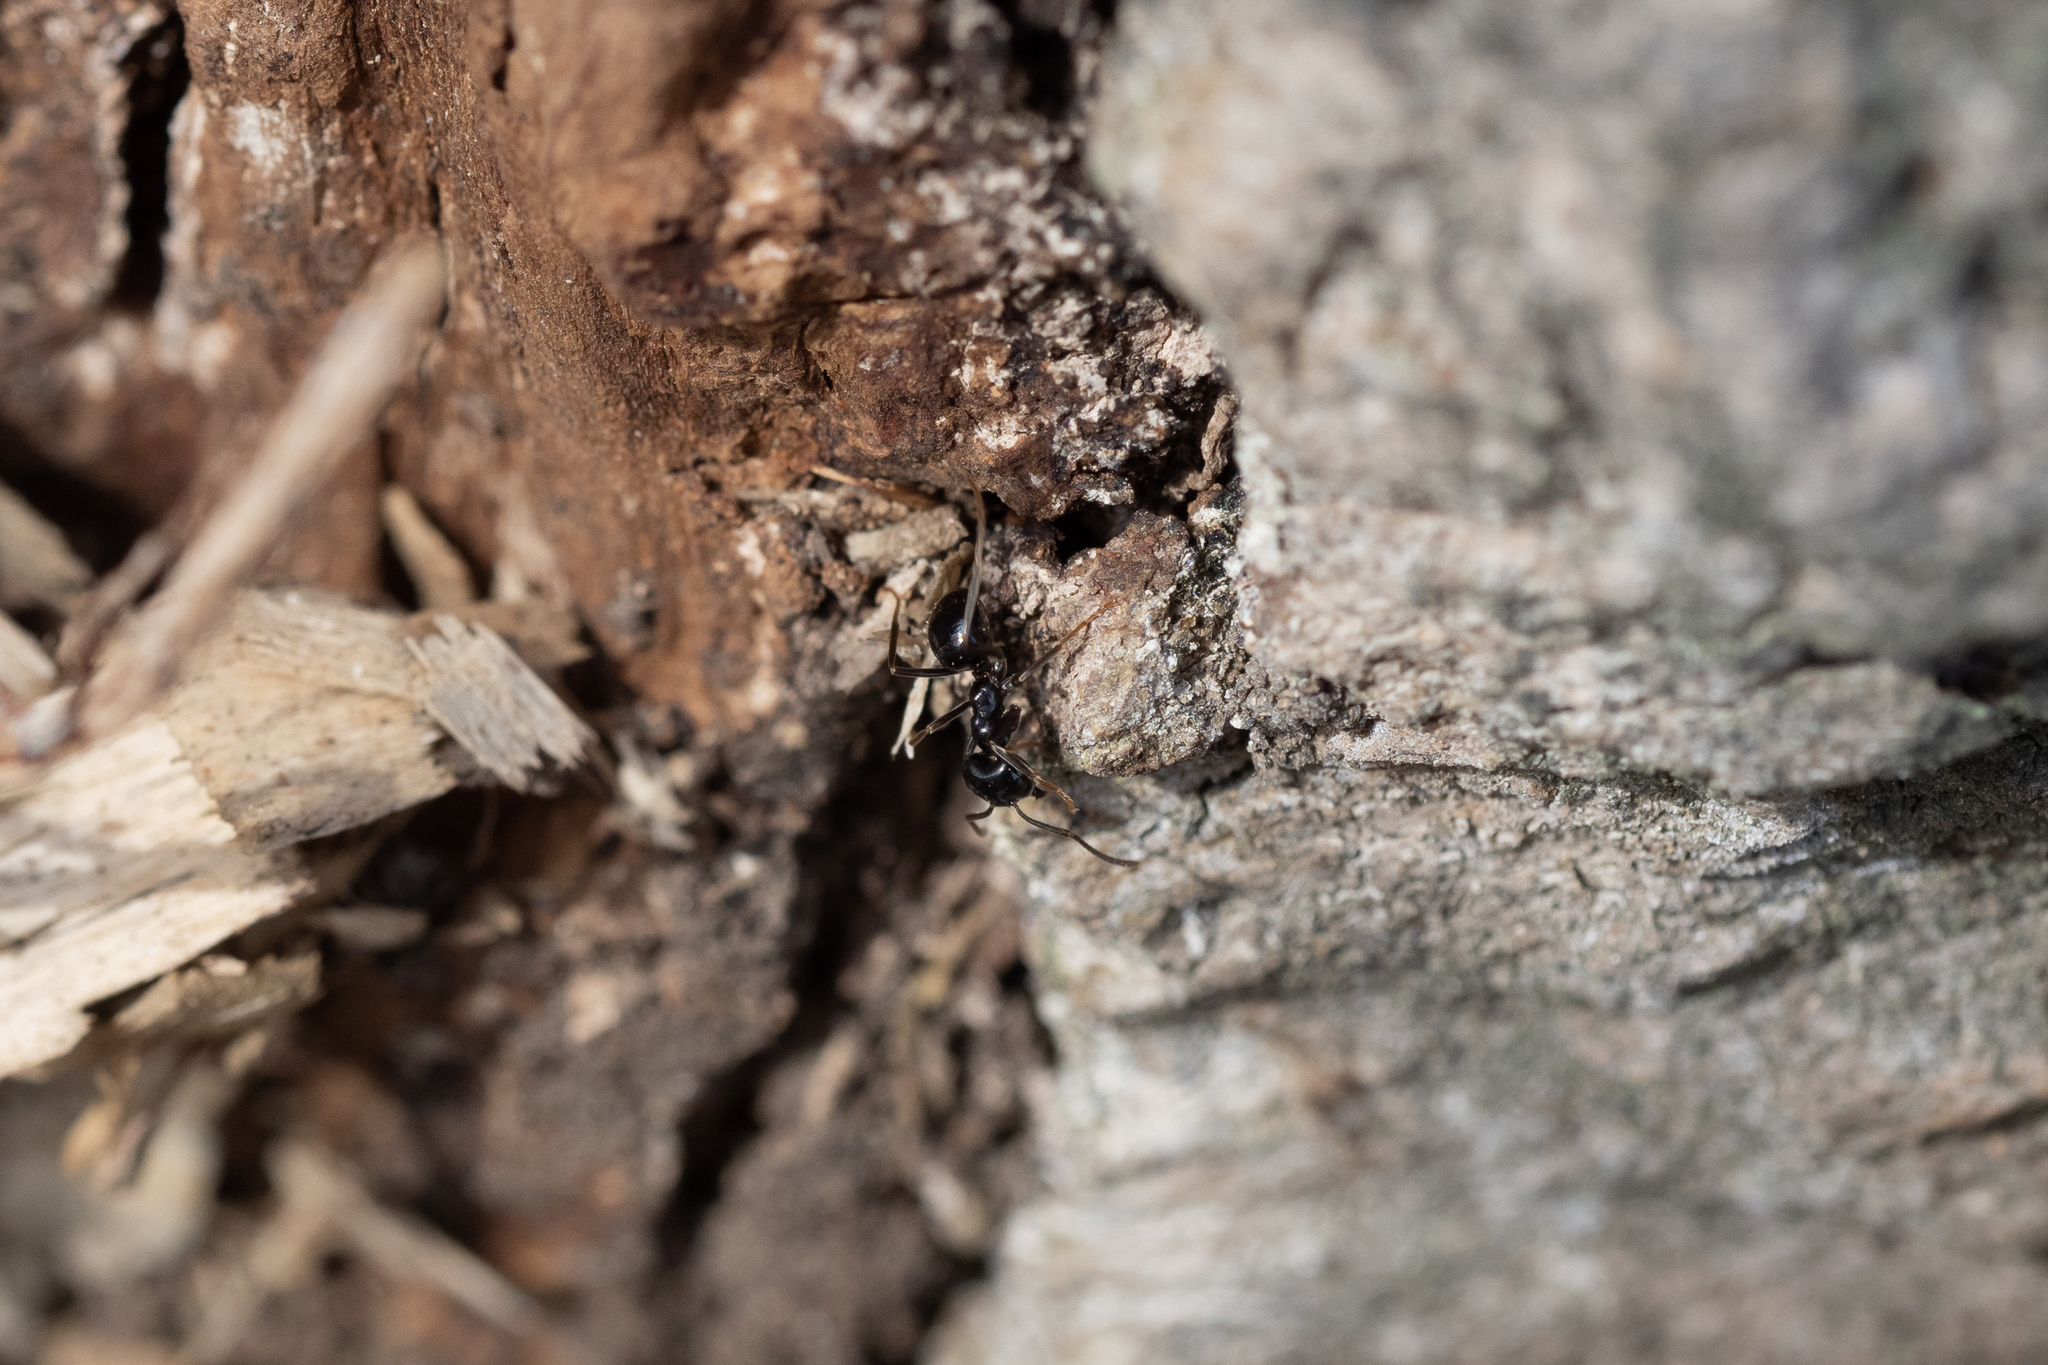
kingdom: Animalia
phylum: Arthropoda
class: Insecta
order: Hymenoptera
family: Formicidae
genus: Lasius
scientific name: Lasius fuliginosus
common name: Jet ant
